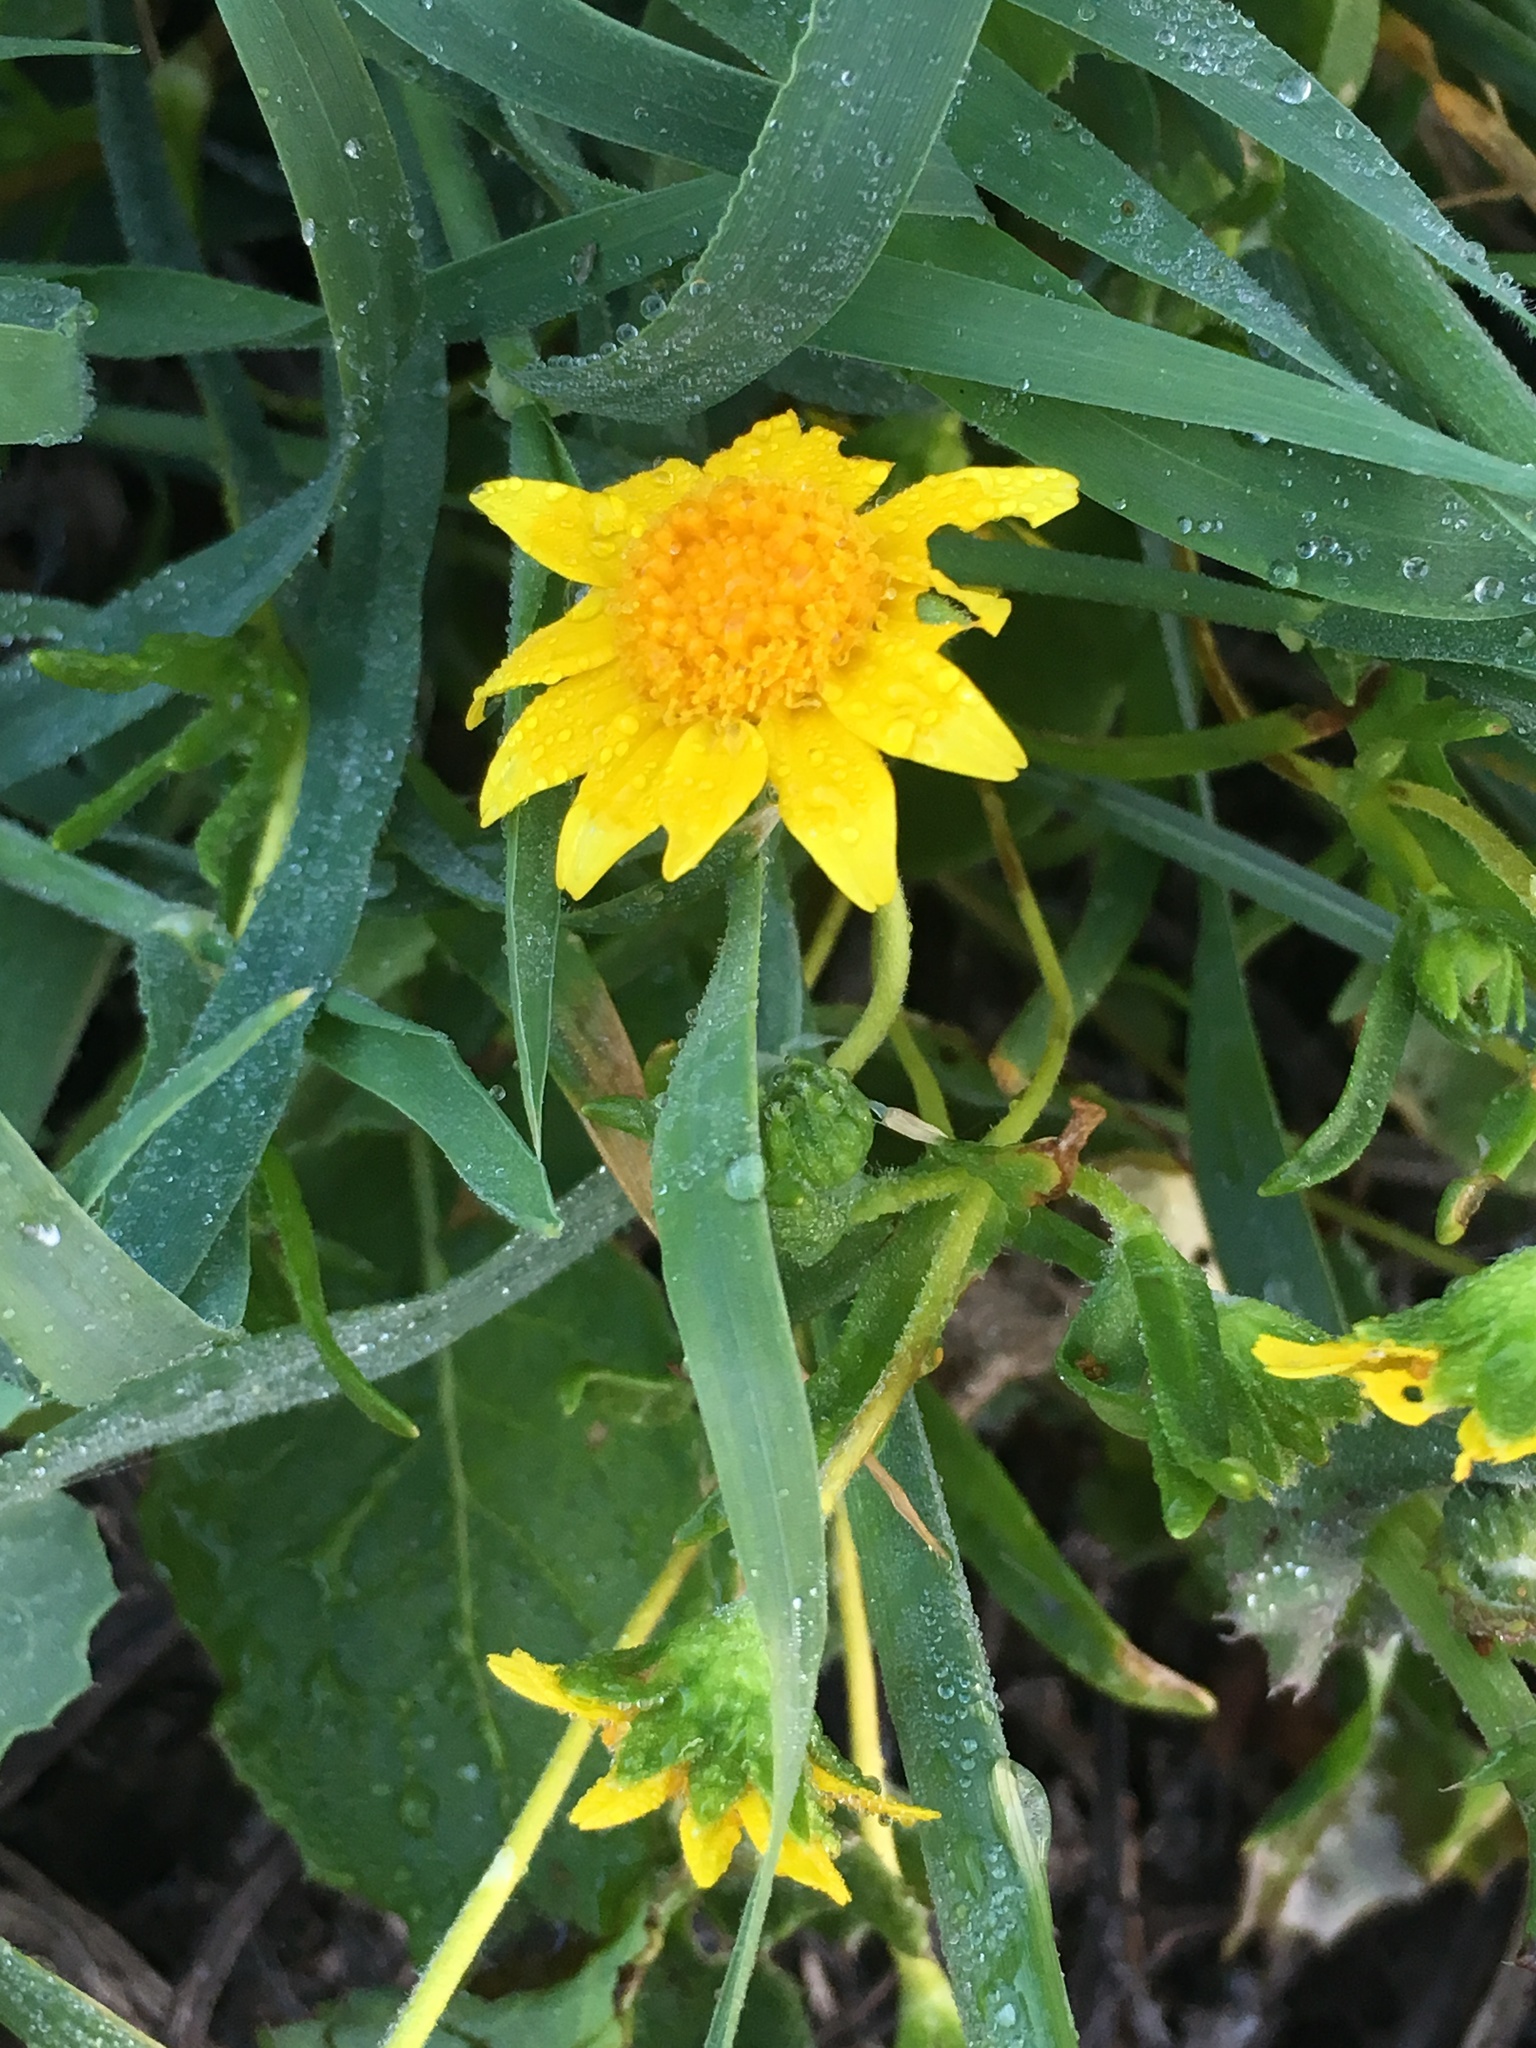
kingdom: Plantae
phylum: Tracheophyta
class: Magnoliopsida
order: Asterales
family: Asteraceae
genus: Lasthenia
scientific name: Lasthenia gracilis
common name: Common goldfields
